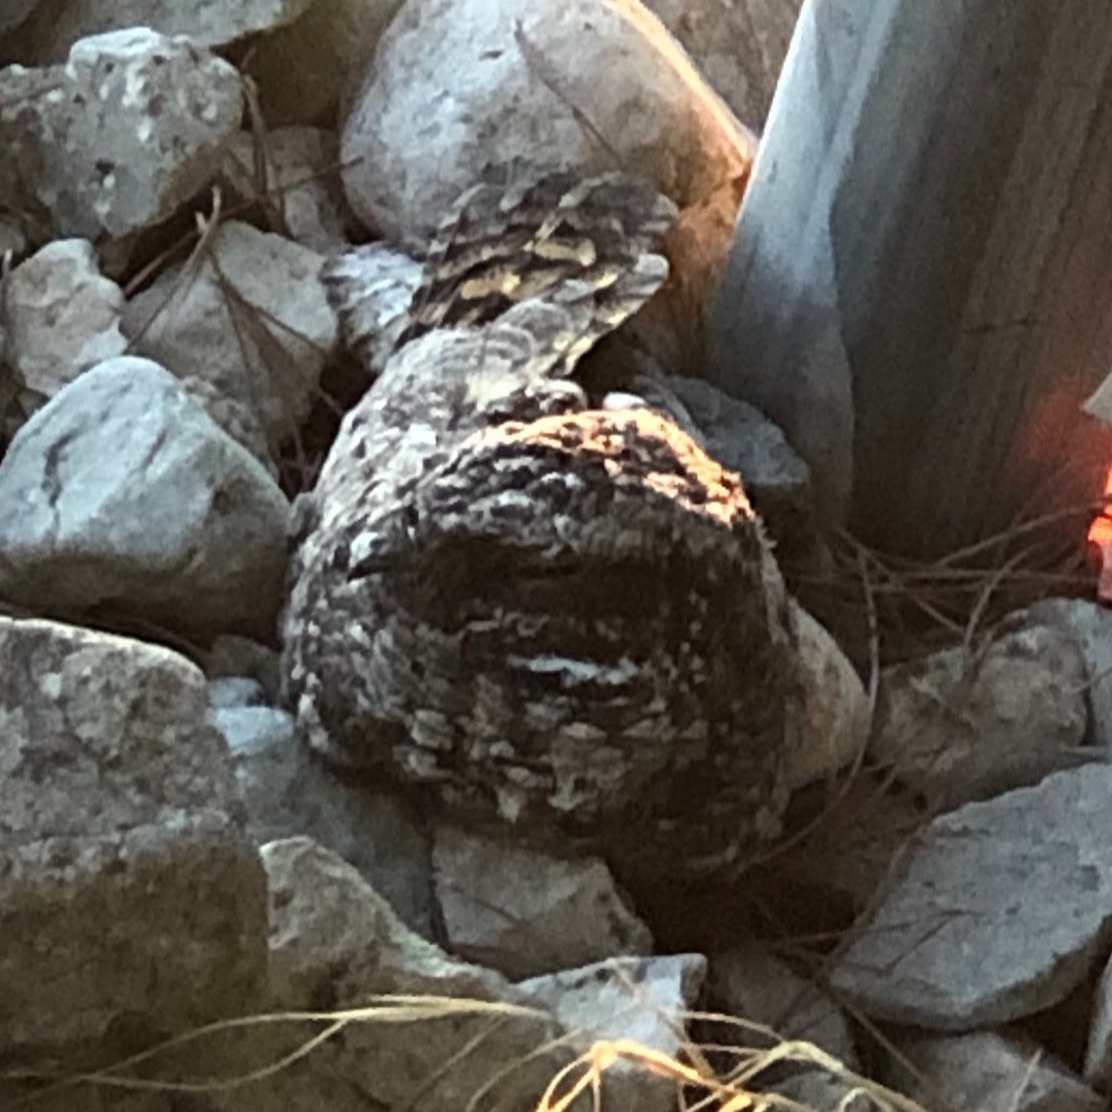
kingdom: Animalia
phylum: Chordata
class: Aves
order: Caprimulgiformes
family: Caprimulgidae
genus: Phalaenoptilus
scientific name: Phalaenoptilus nuttallii
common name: Common poorwill
